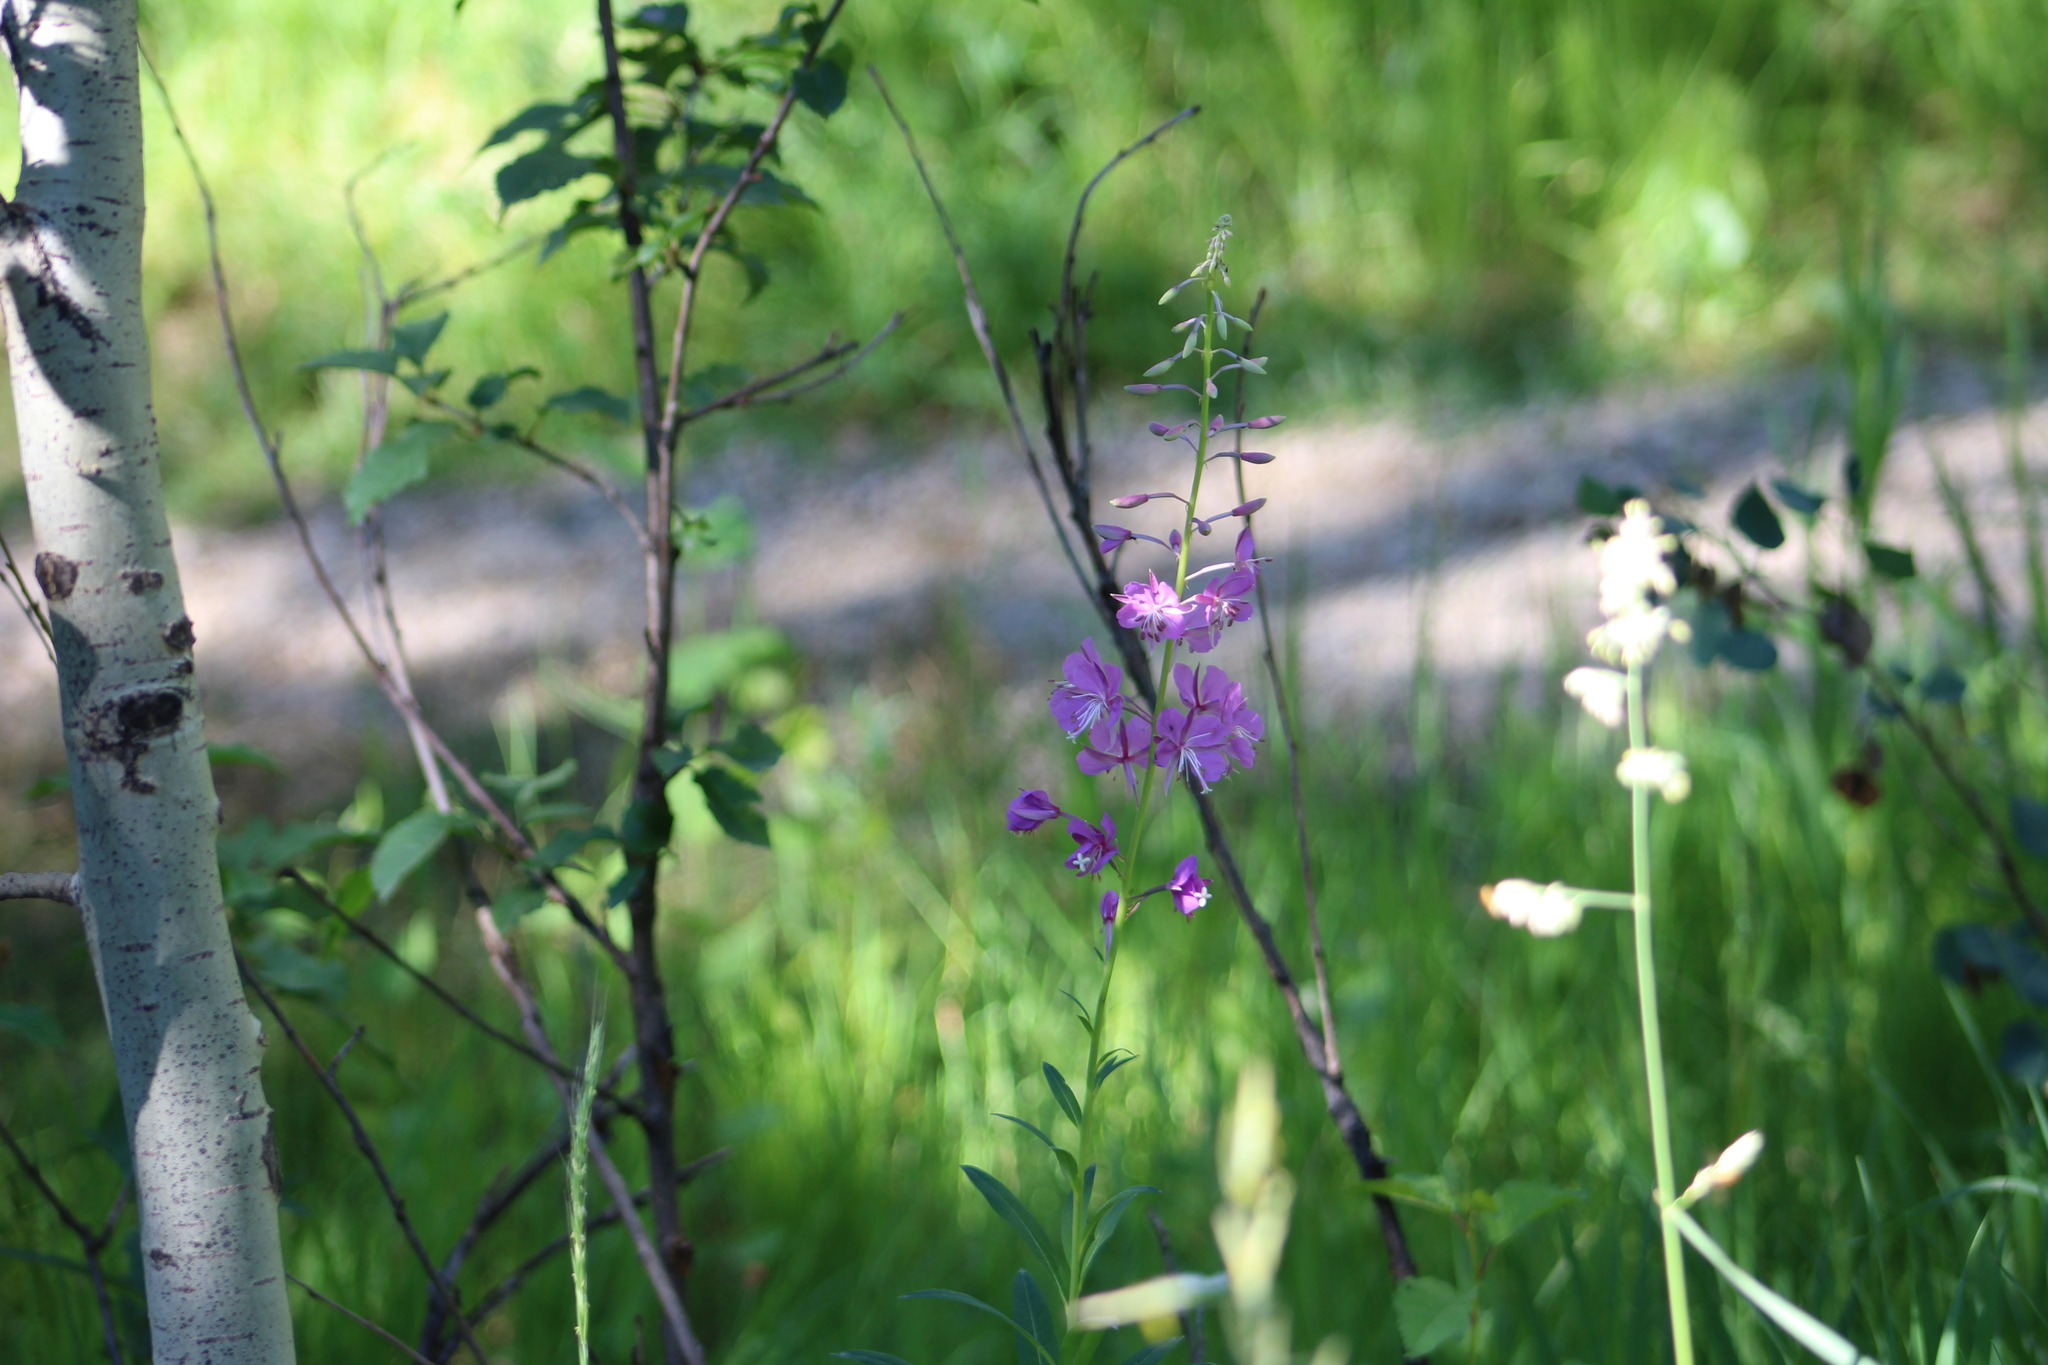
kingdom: Plantae
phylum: Tracheophyta
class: Magnoliopsida
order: Myrtales
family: Onagraceae
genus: Chamaenerion
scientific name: Chamaenerion angustifolium
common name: Fireweed
